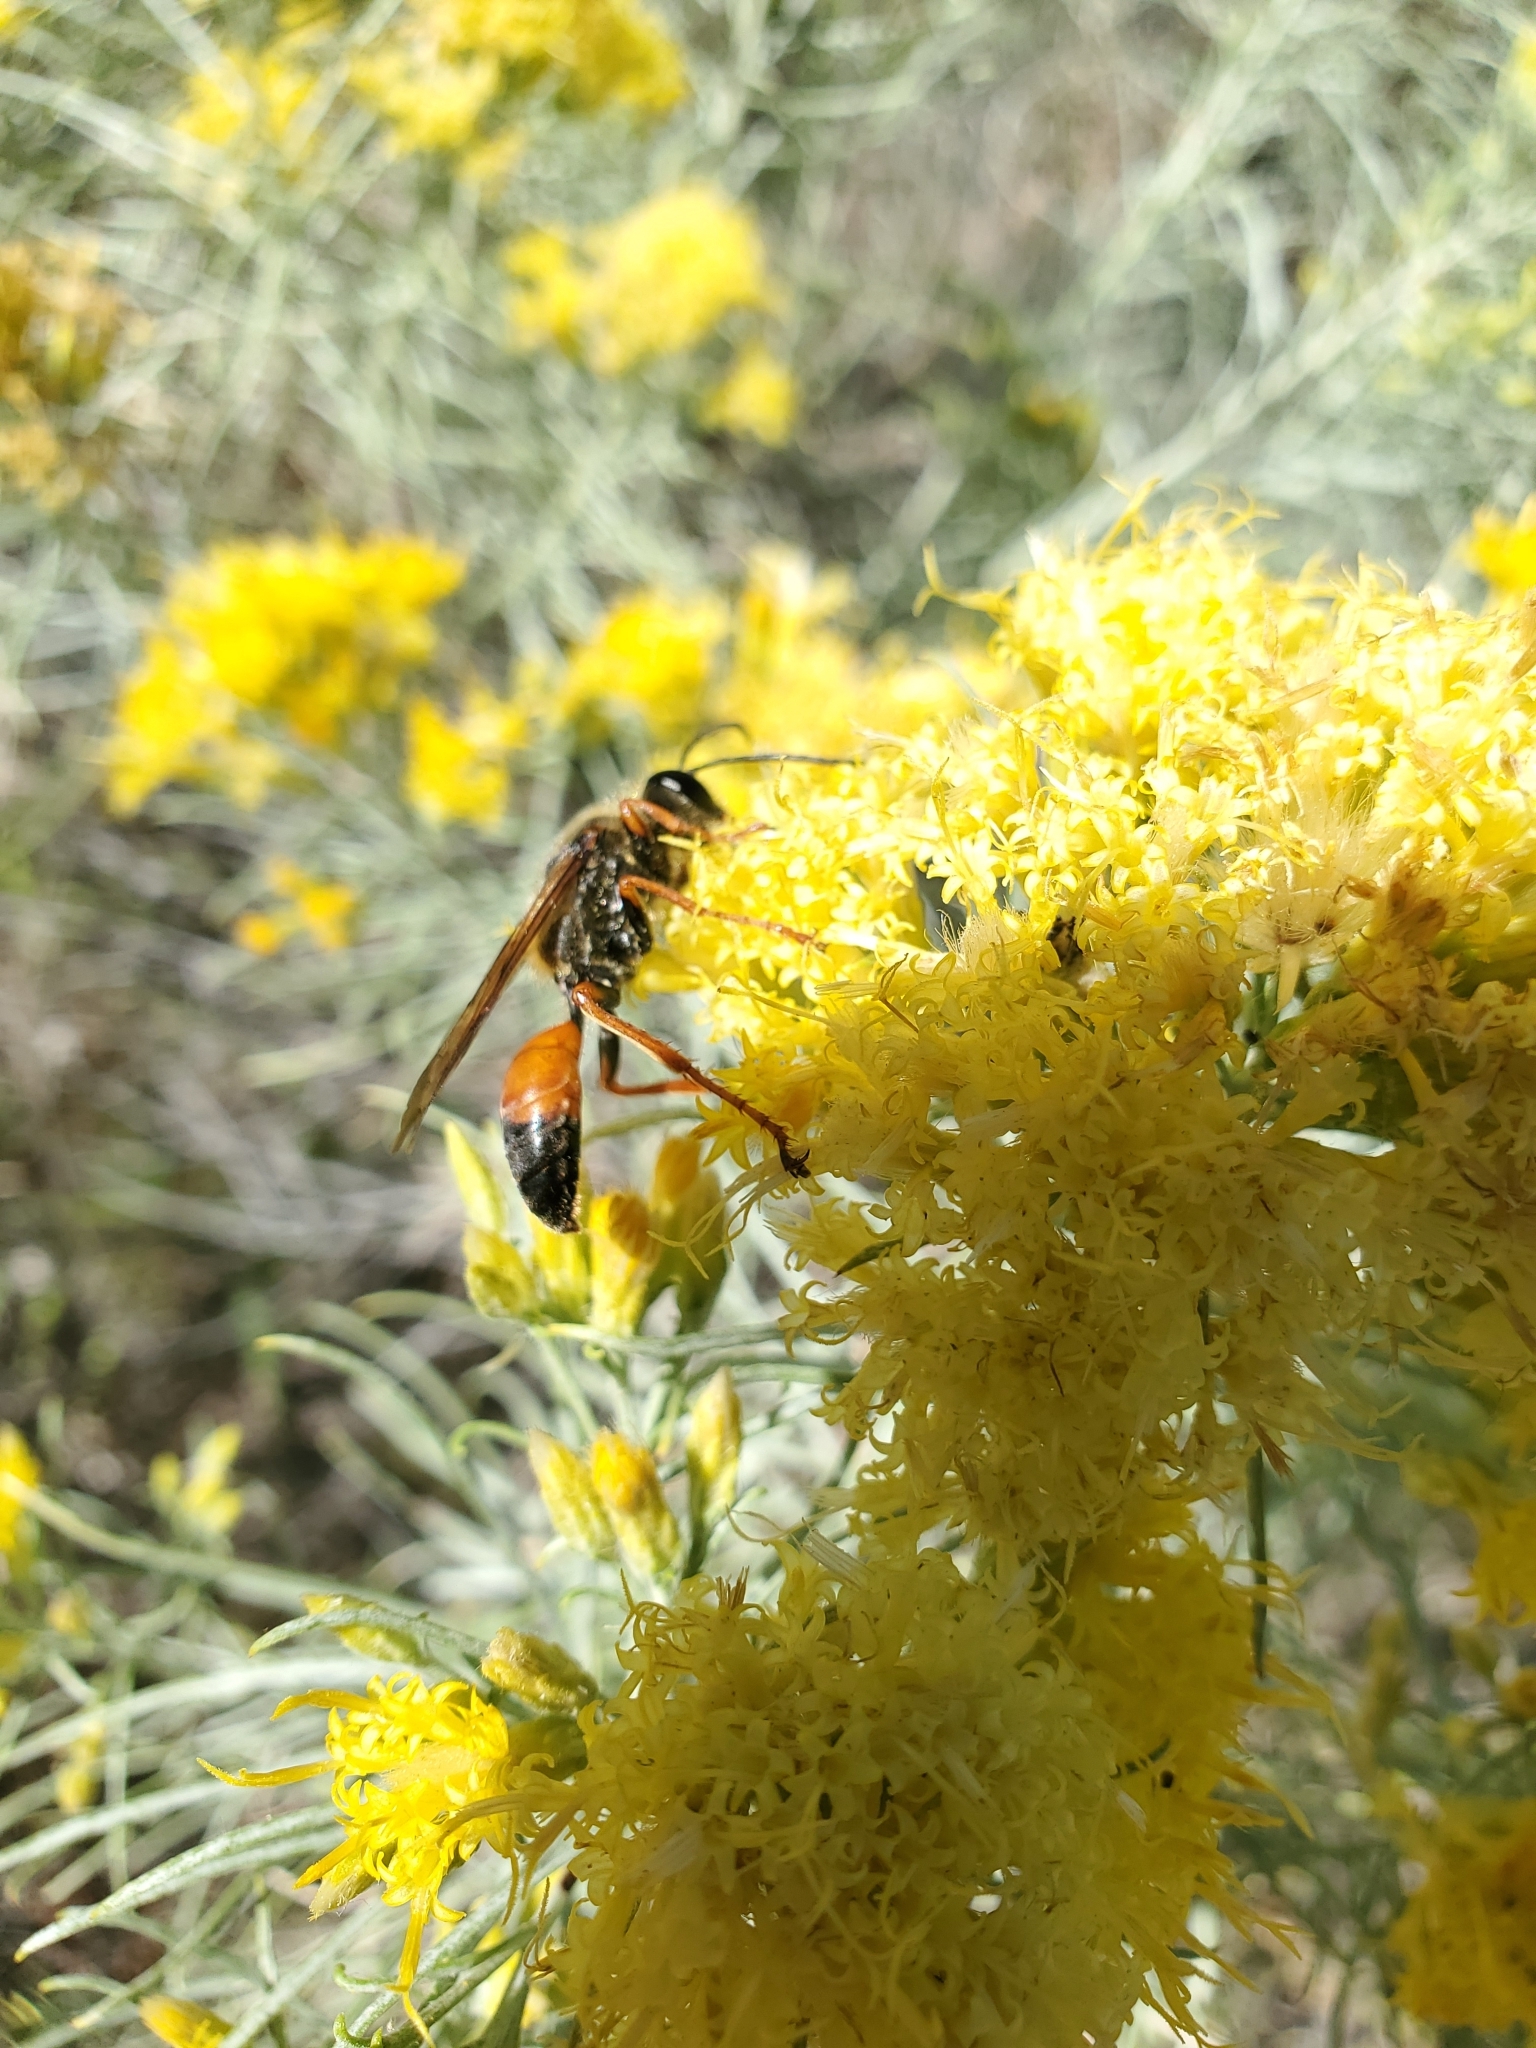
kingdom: Animalia
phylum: Arthropoda
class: Insecta
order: Hymenoptera
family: Sphecidae
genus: Sphex
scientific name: Sphex ichneumoneus
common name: Great golden digger wasp
